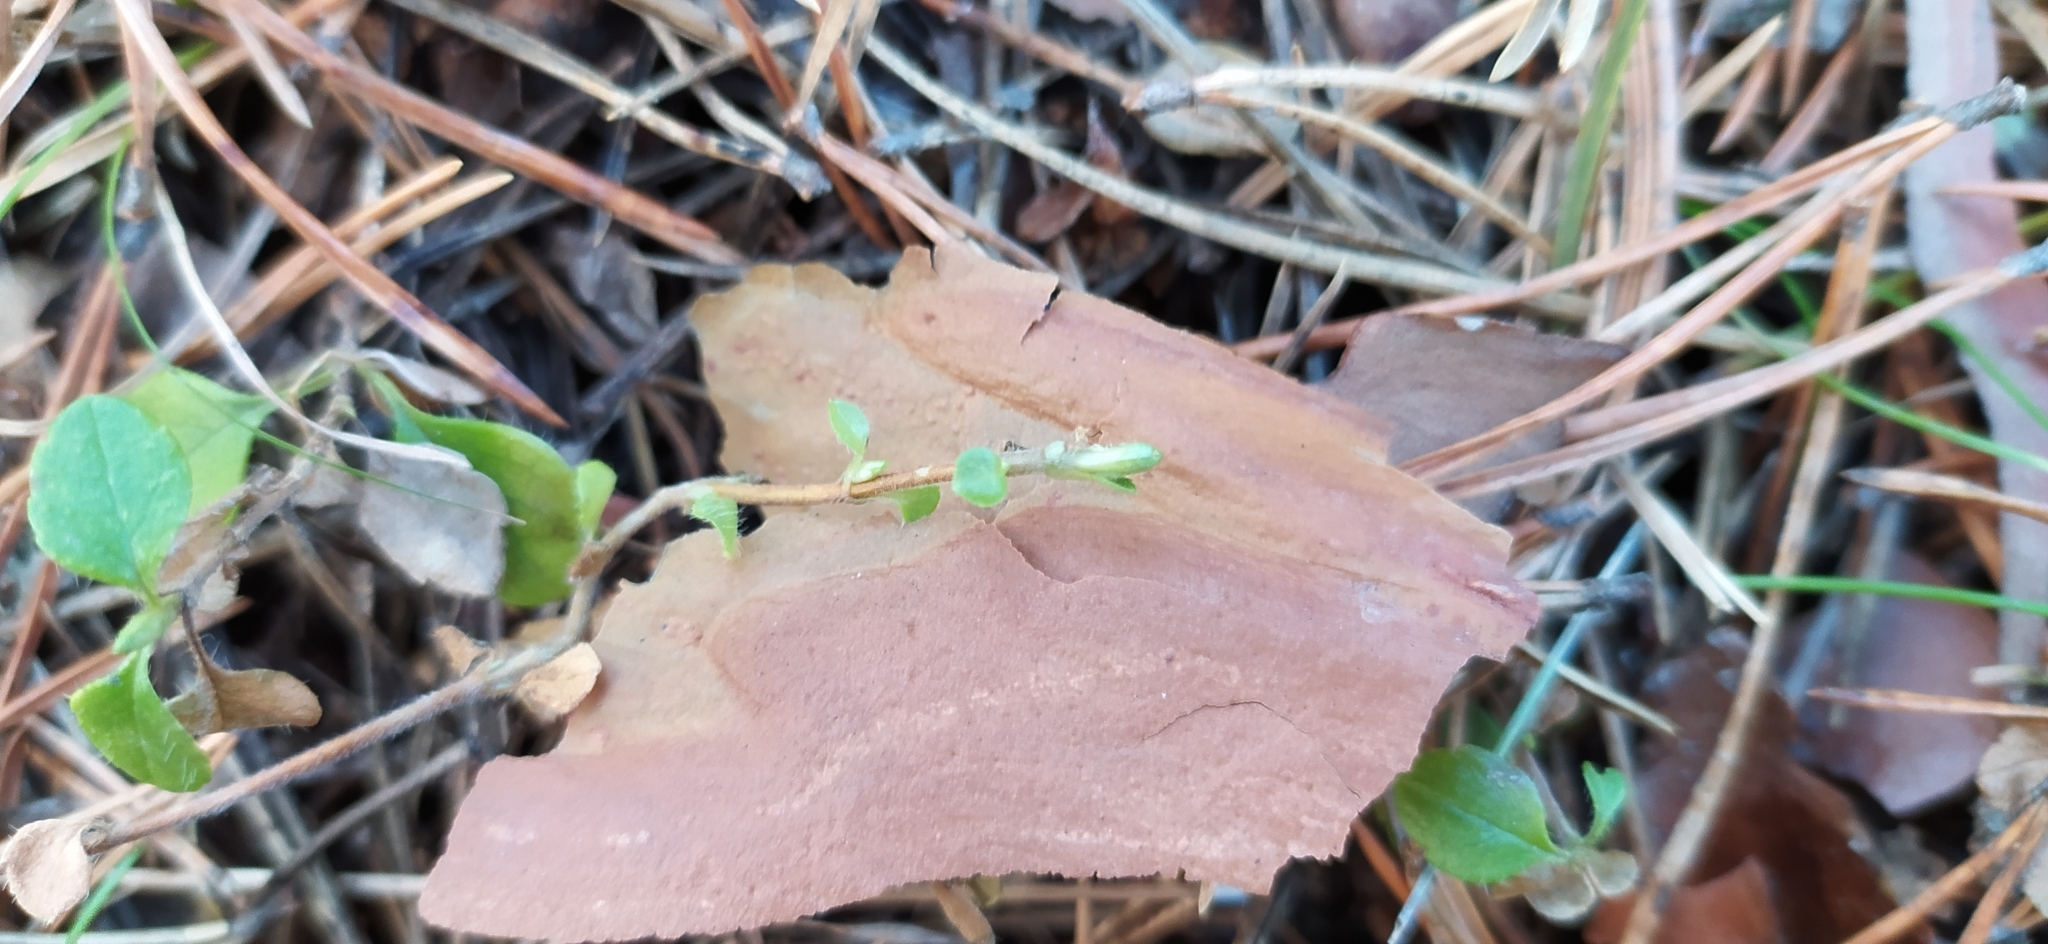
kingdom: Plantae
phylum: Tracheophyta
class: Magnoliopsida
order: Dipsacales
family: Caprifoliaceae
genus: Linnaea
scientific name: Linnaea borealis
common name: Twinflower
